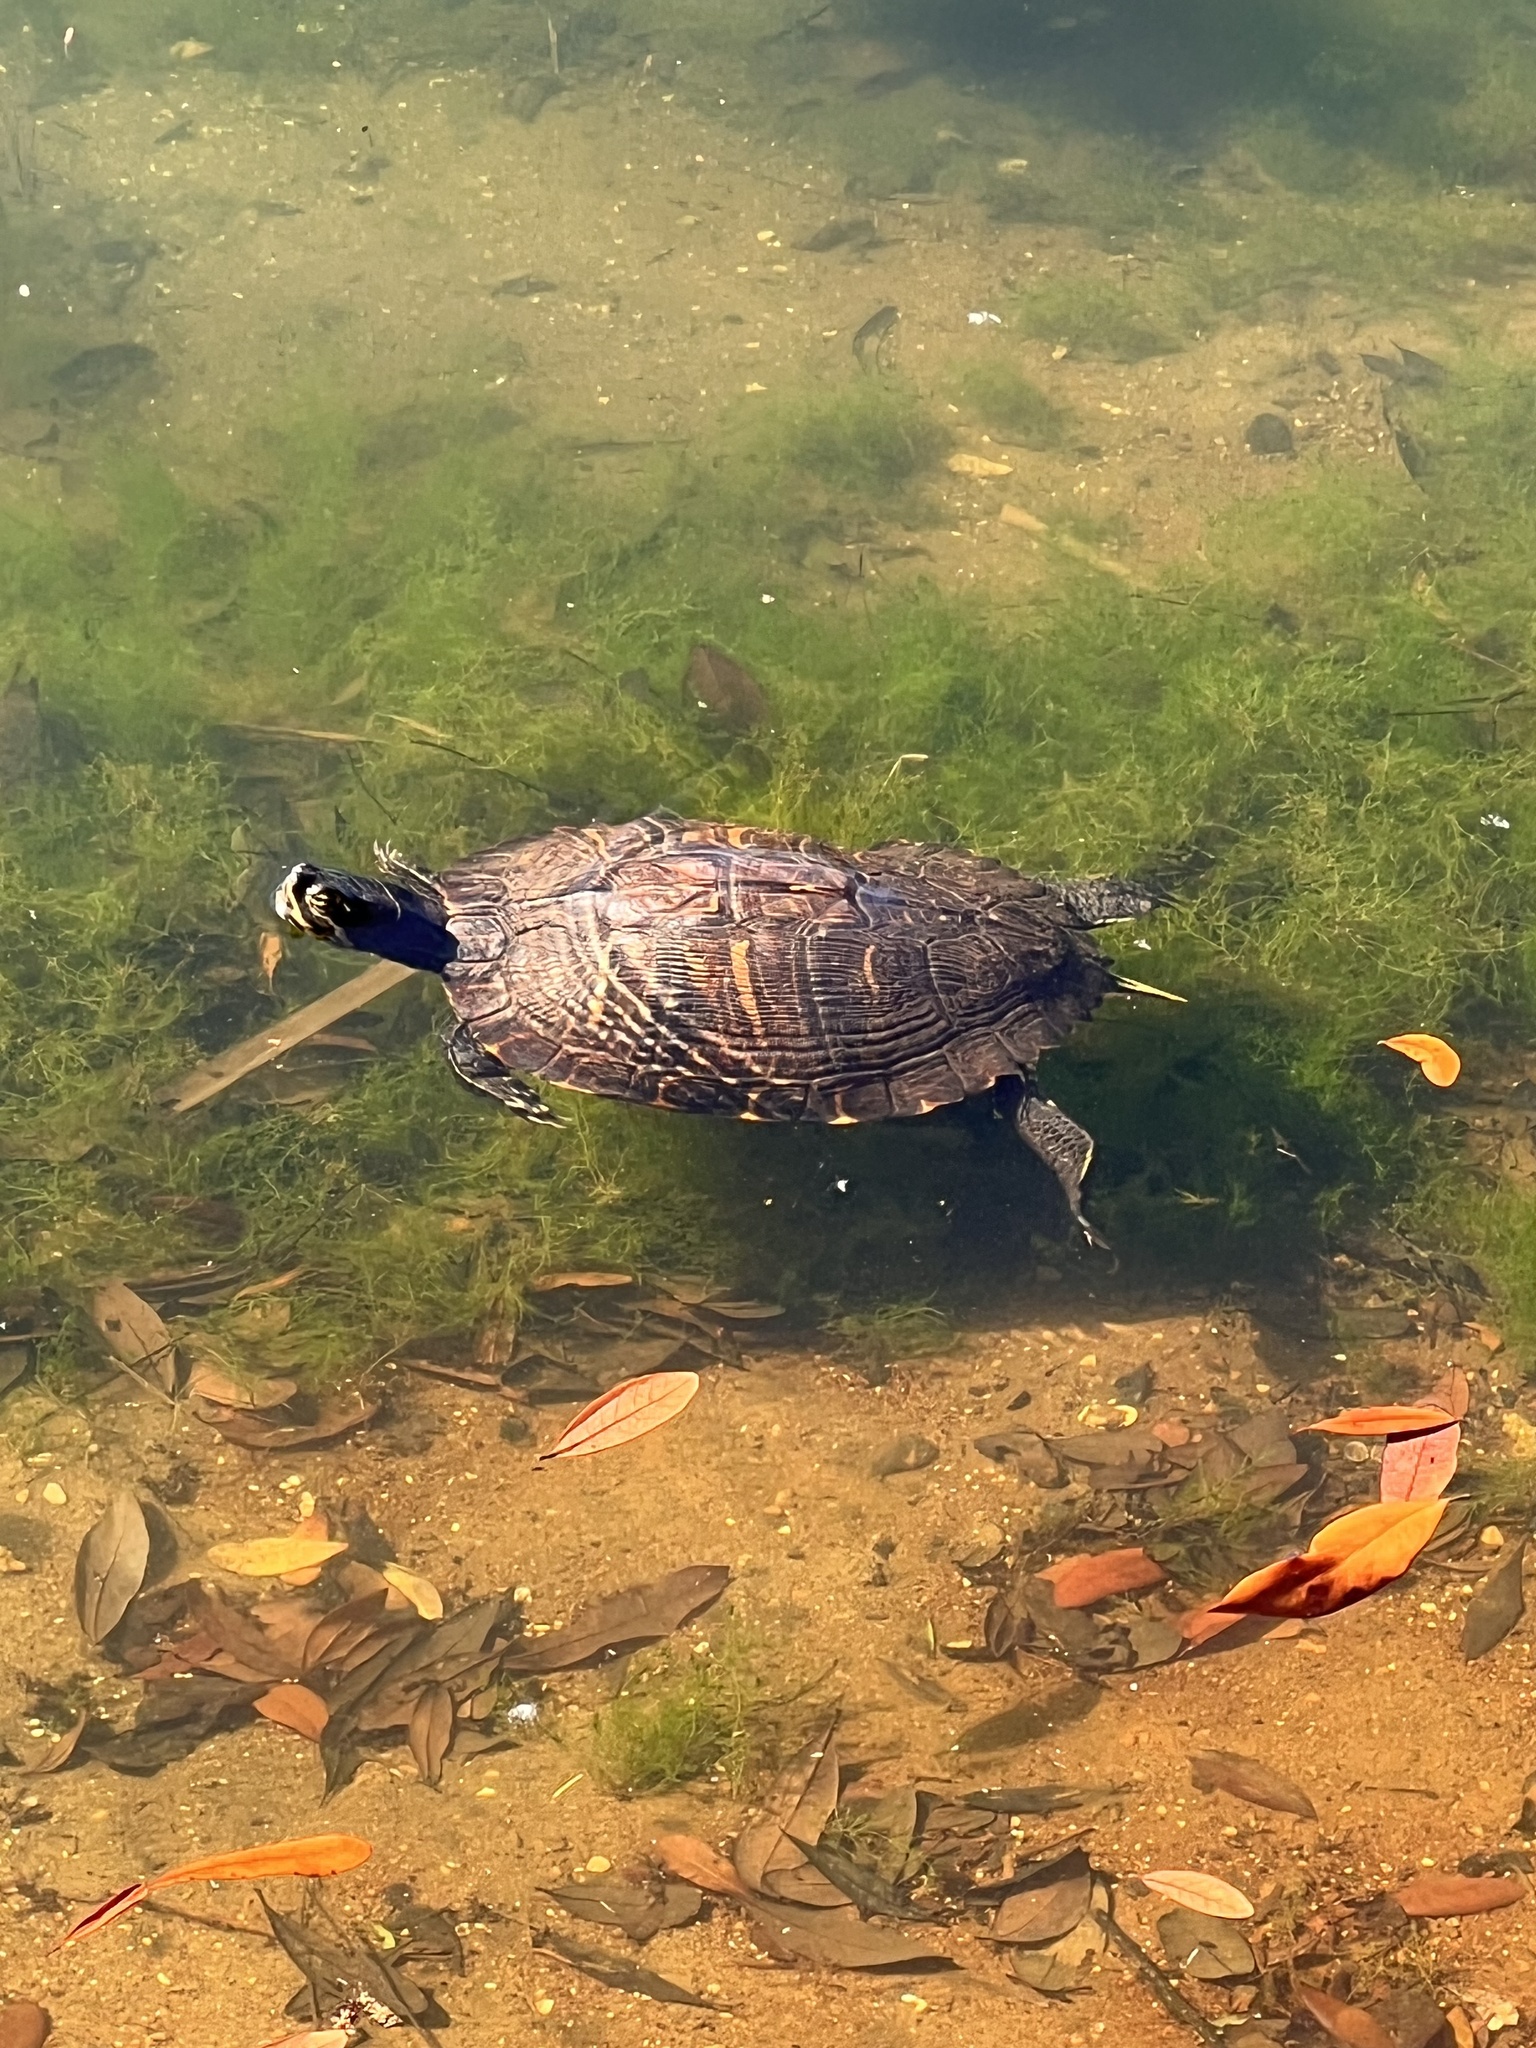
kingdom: Animalia
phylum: Chordata
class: Testudines
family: Emydidae
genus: Trachemys
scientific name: Trachemys scripta
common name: Slider
